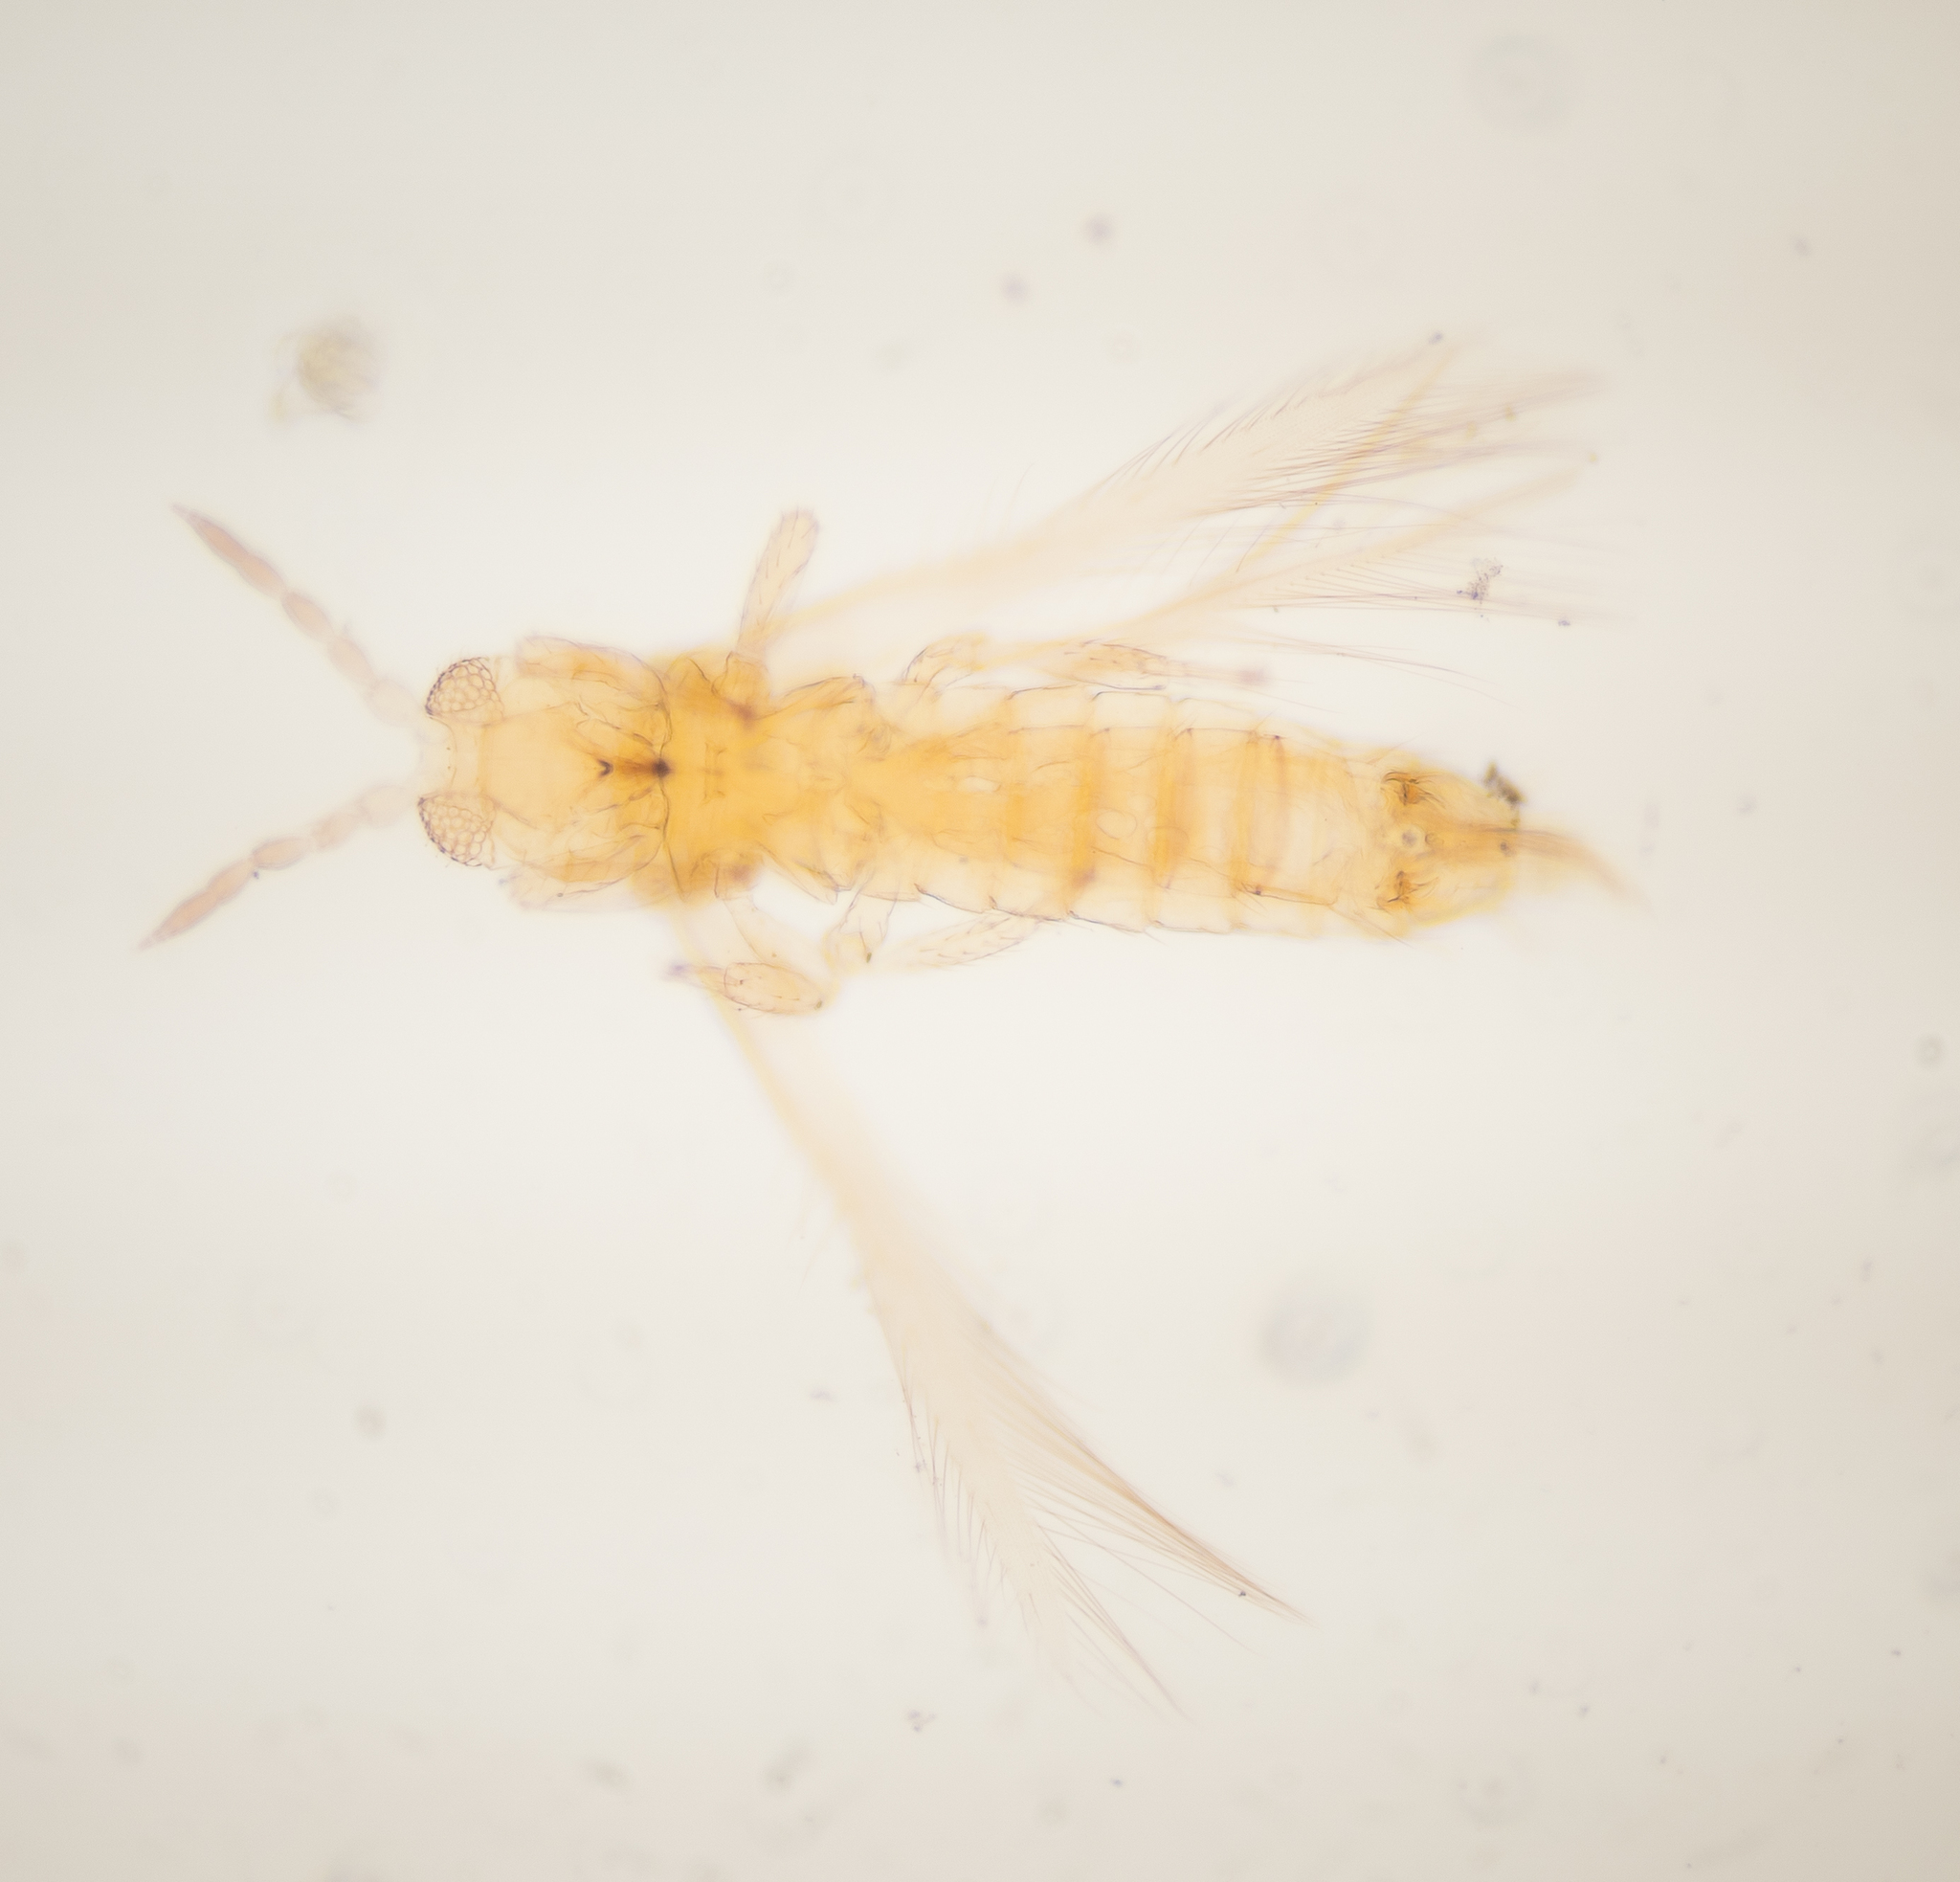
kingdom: Animalia
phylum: Arthropoda
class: Insecta
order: Thysanoptera
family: Thripidae
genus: Scirtothrips
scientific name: Scirtothrips dorsalis
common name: Thrips
